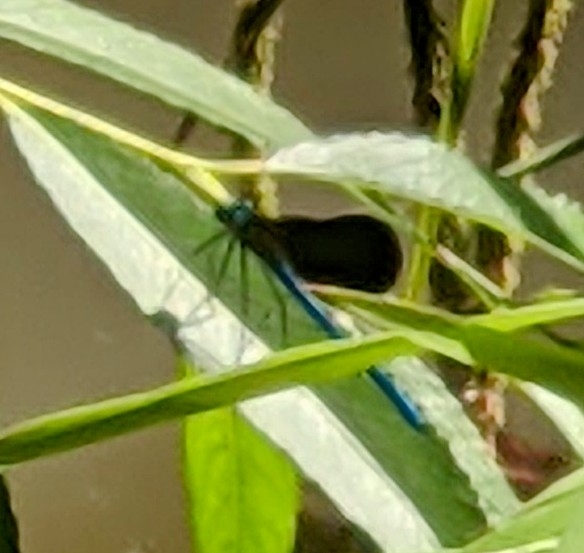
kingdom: Animalia
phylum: Arthropoda
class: Insecta
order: Odonata
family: Calopterygidae
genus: Calopteryx
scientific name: Calopteryx virgo
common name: Beautiful demoiselle
